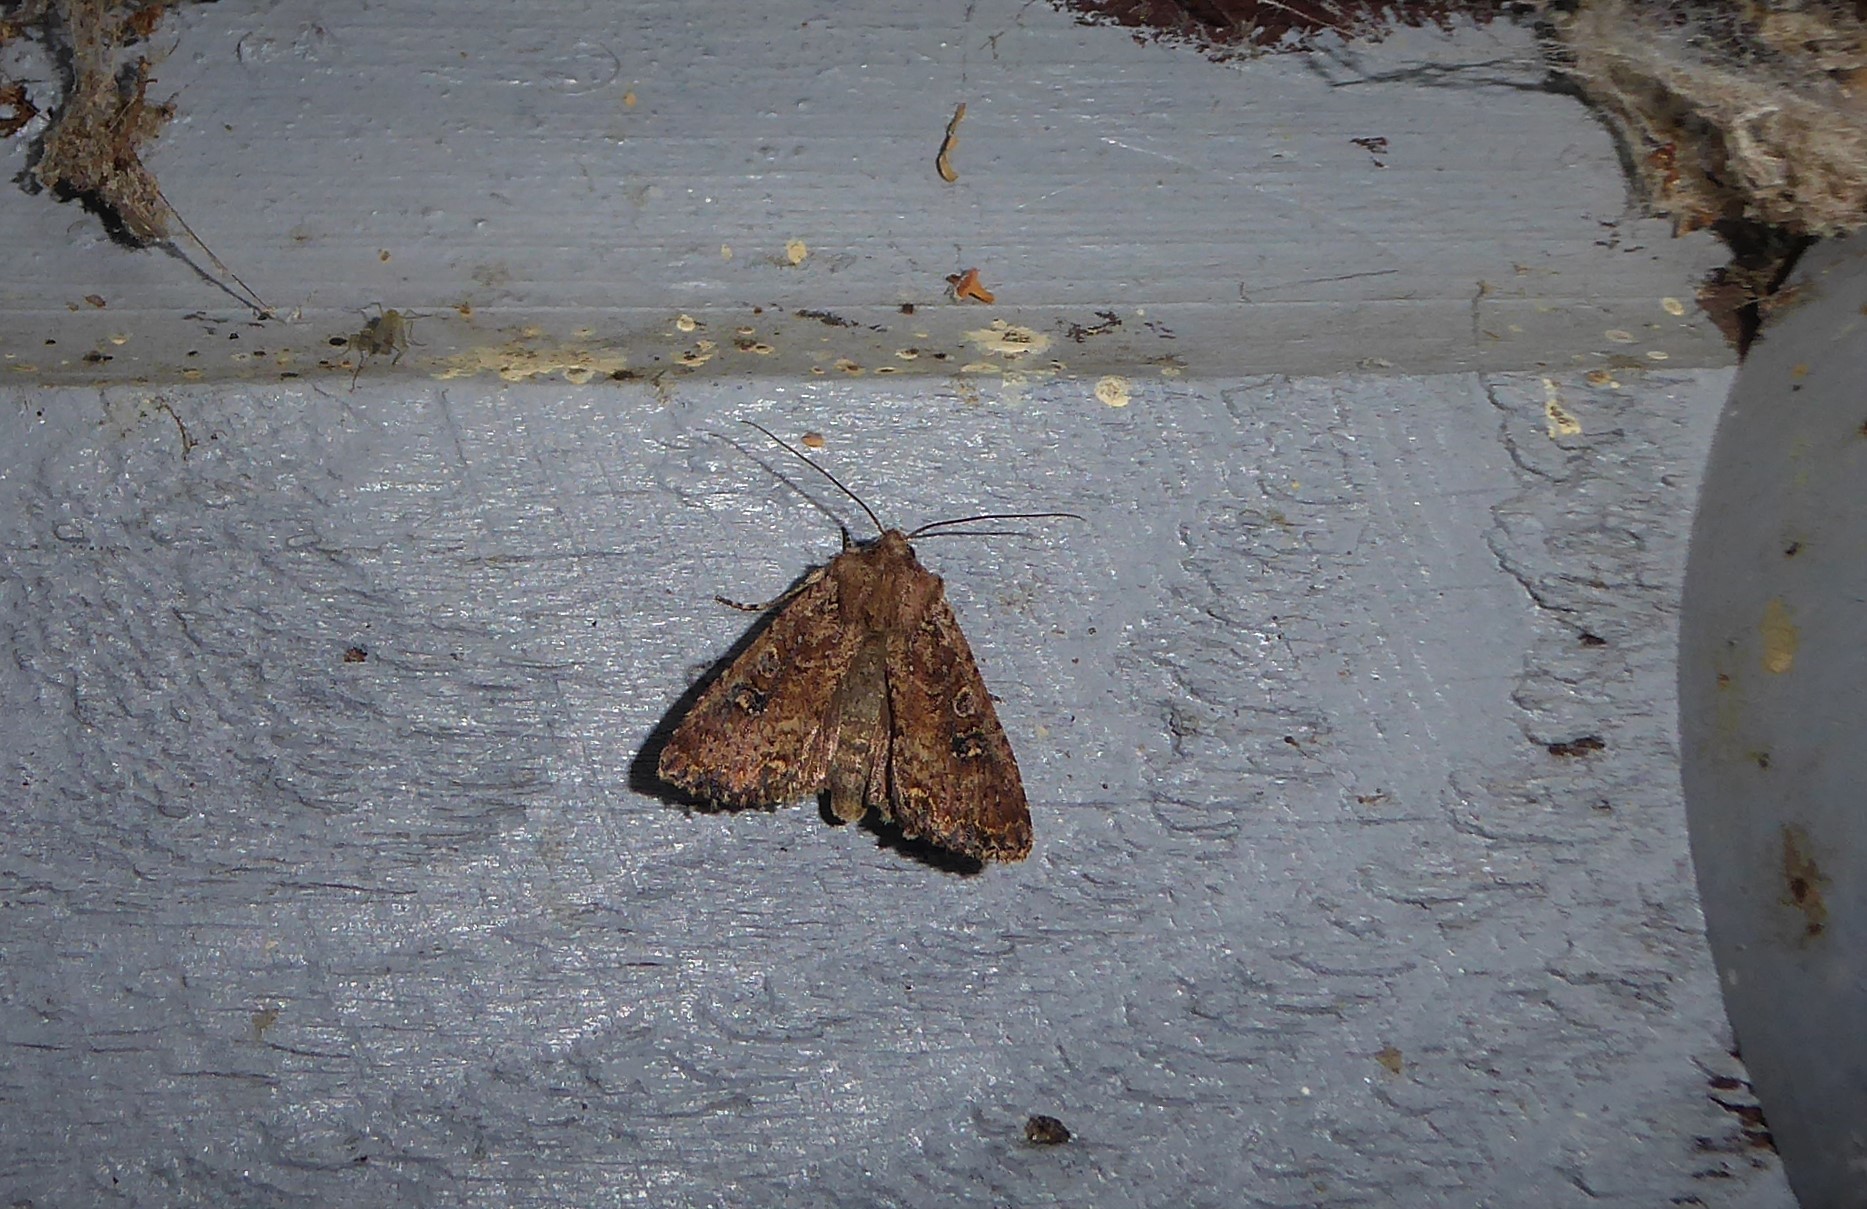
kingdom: Animalia
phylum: Arthropoda
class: Insecta
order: Lepidoptera
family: Noctuidae
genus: Ichneutica
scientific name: Ichneutica morosa
